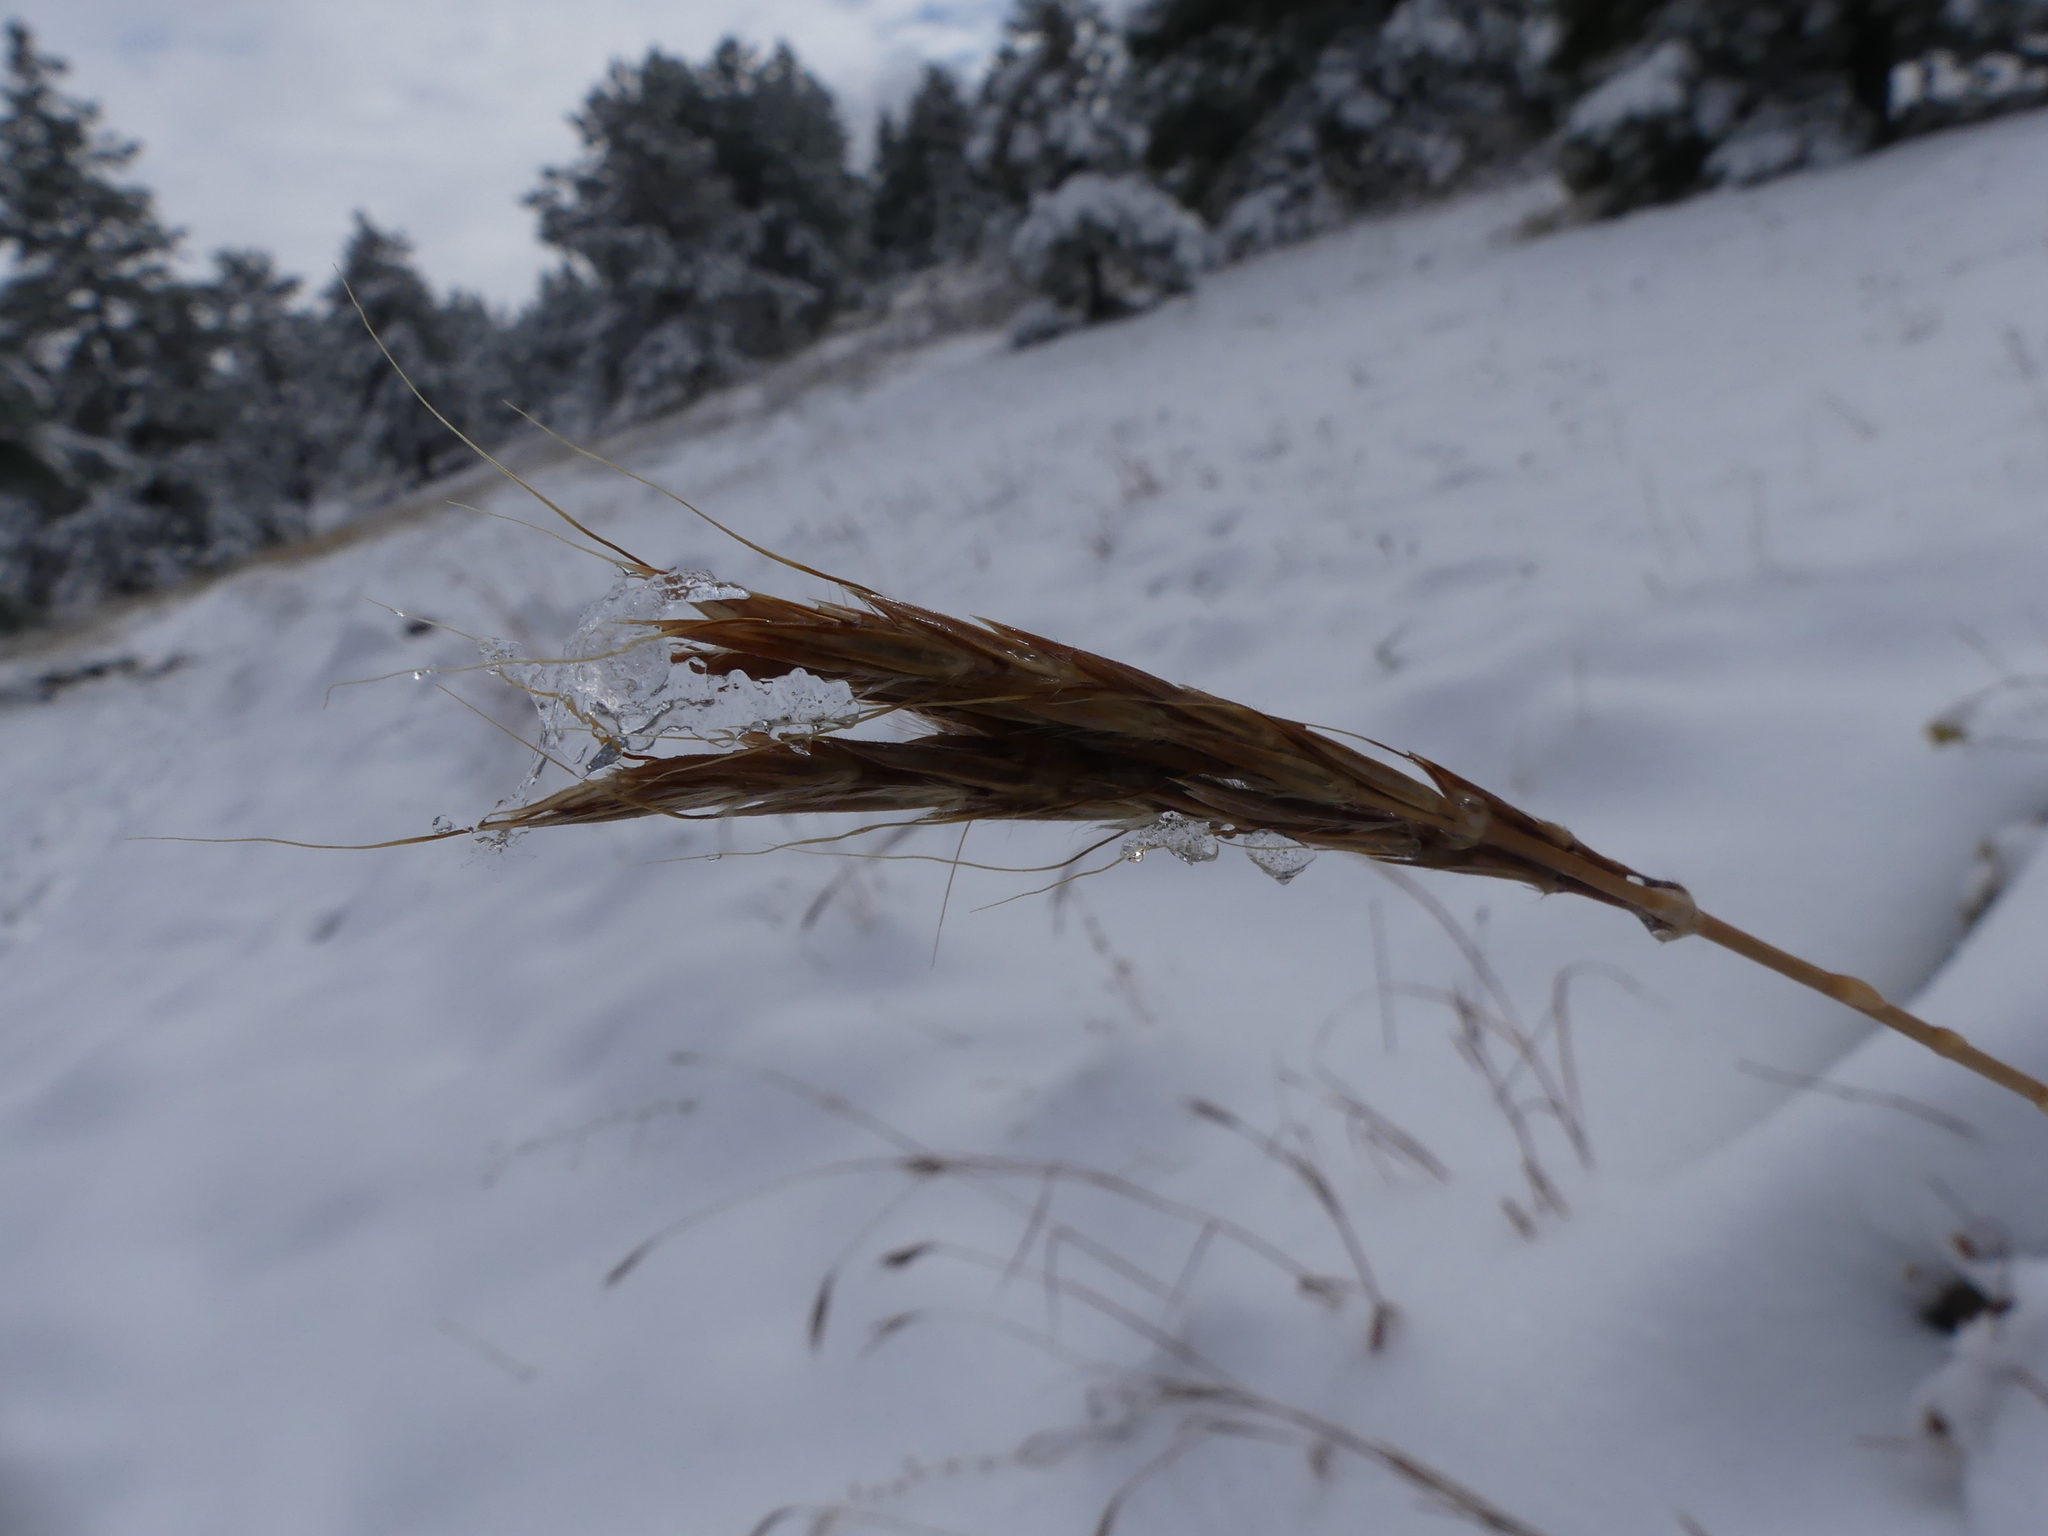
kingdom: Plantae
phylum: Tracheophyta
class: Liliopsida
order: Poales
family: Poaceae
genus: Andropogon
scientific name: Andropogon gerardi
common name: Big bluestem
